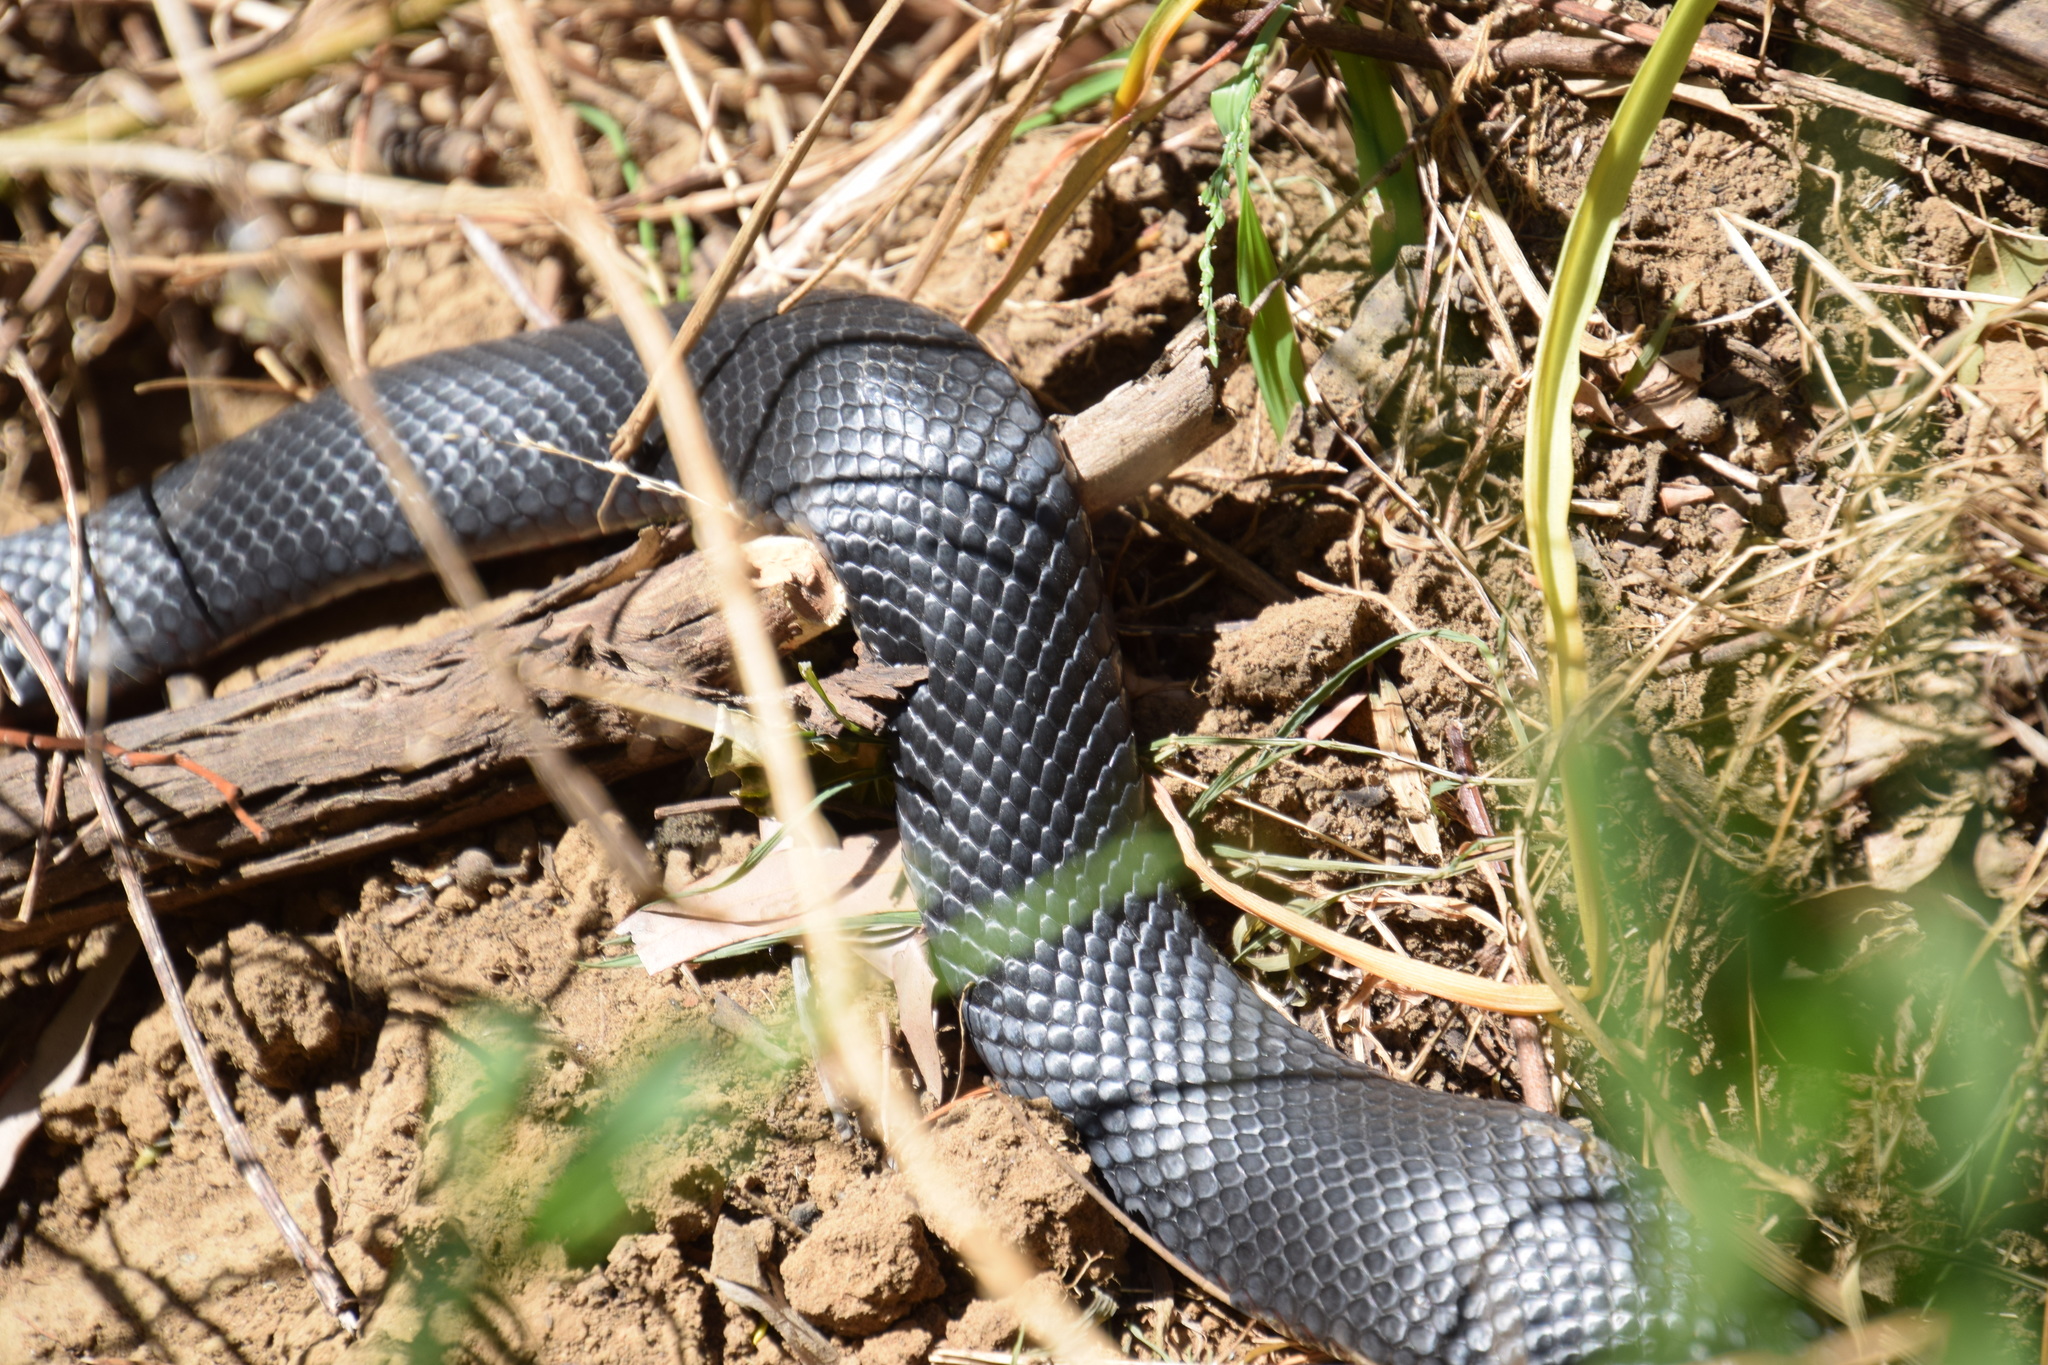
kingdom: Animalia
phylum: Chordata
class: Squamata
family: Elapidae
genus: Pseudechis
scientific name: Pseudechis porphyriacus
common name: Australian black snake
